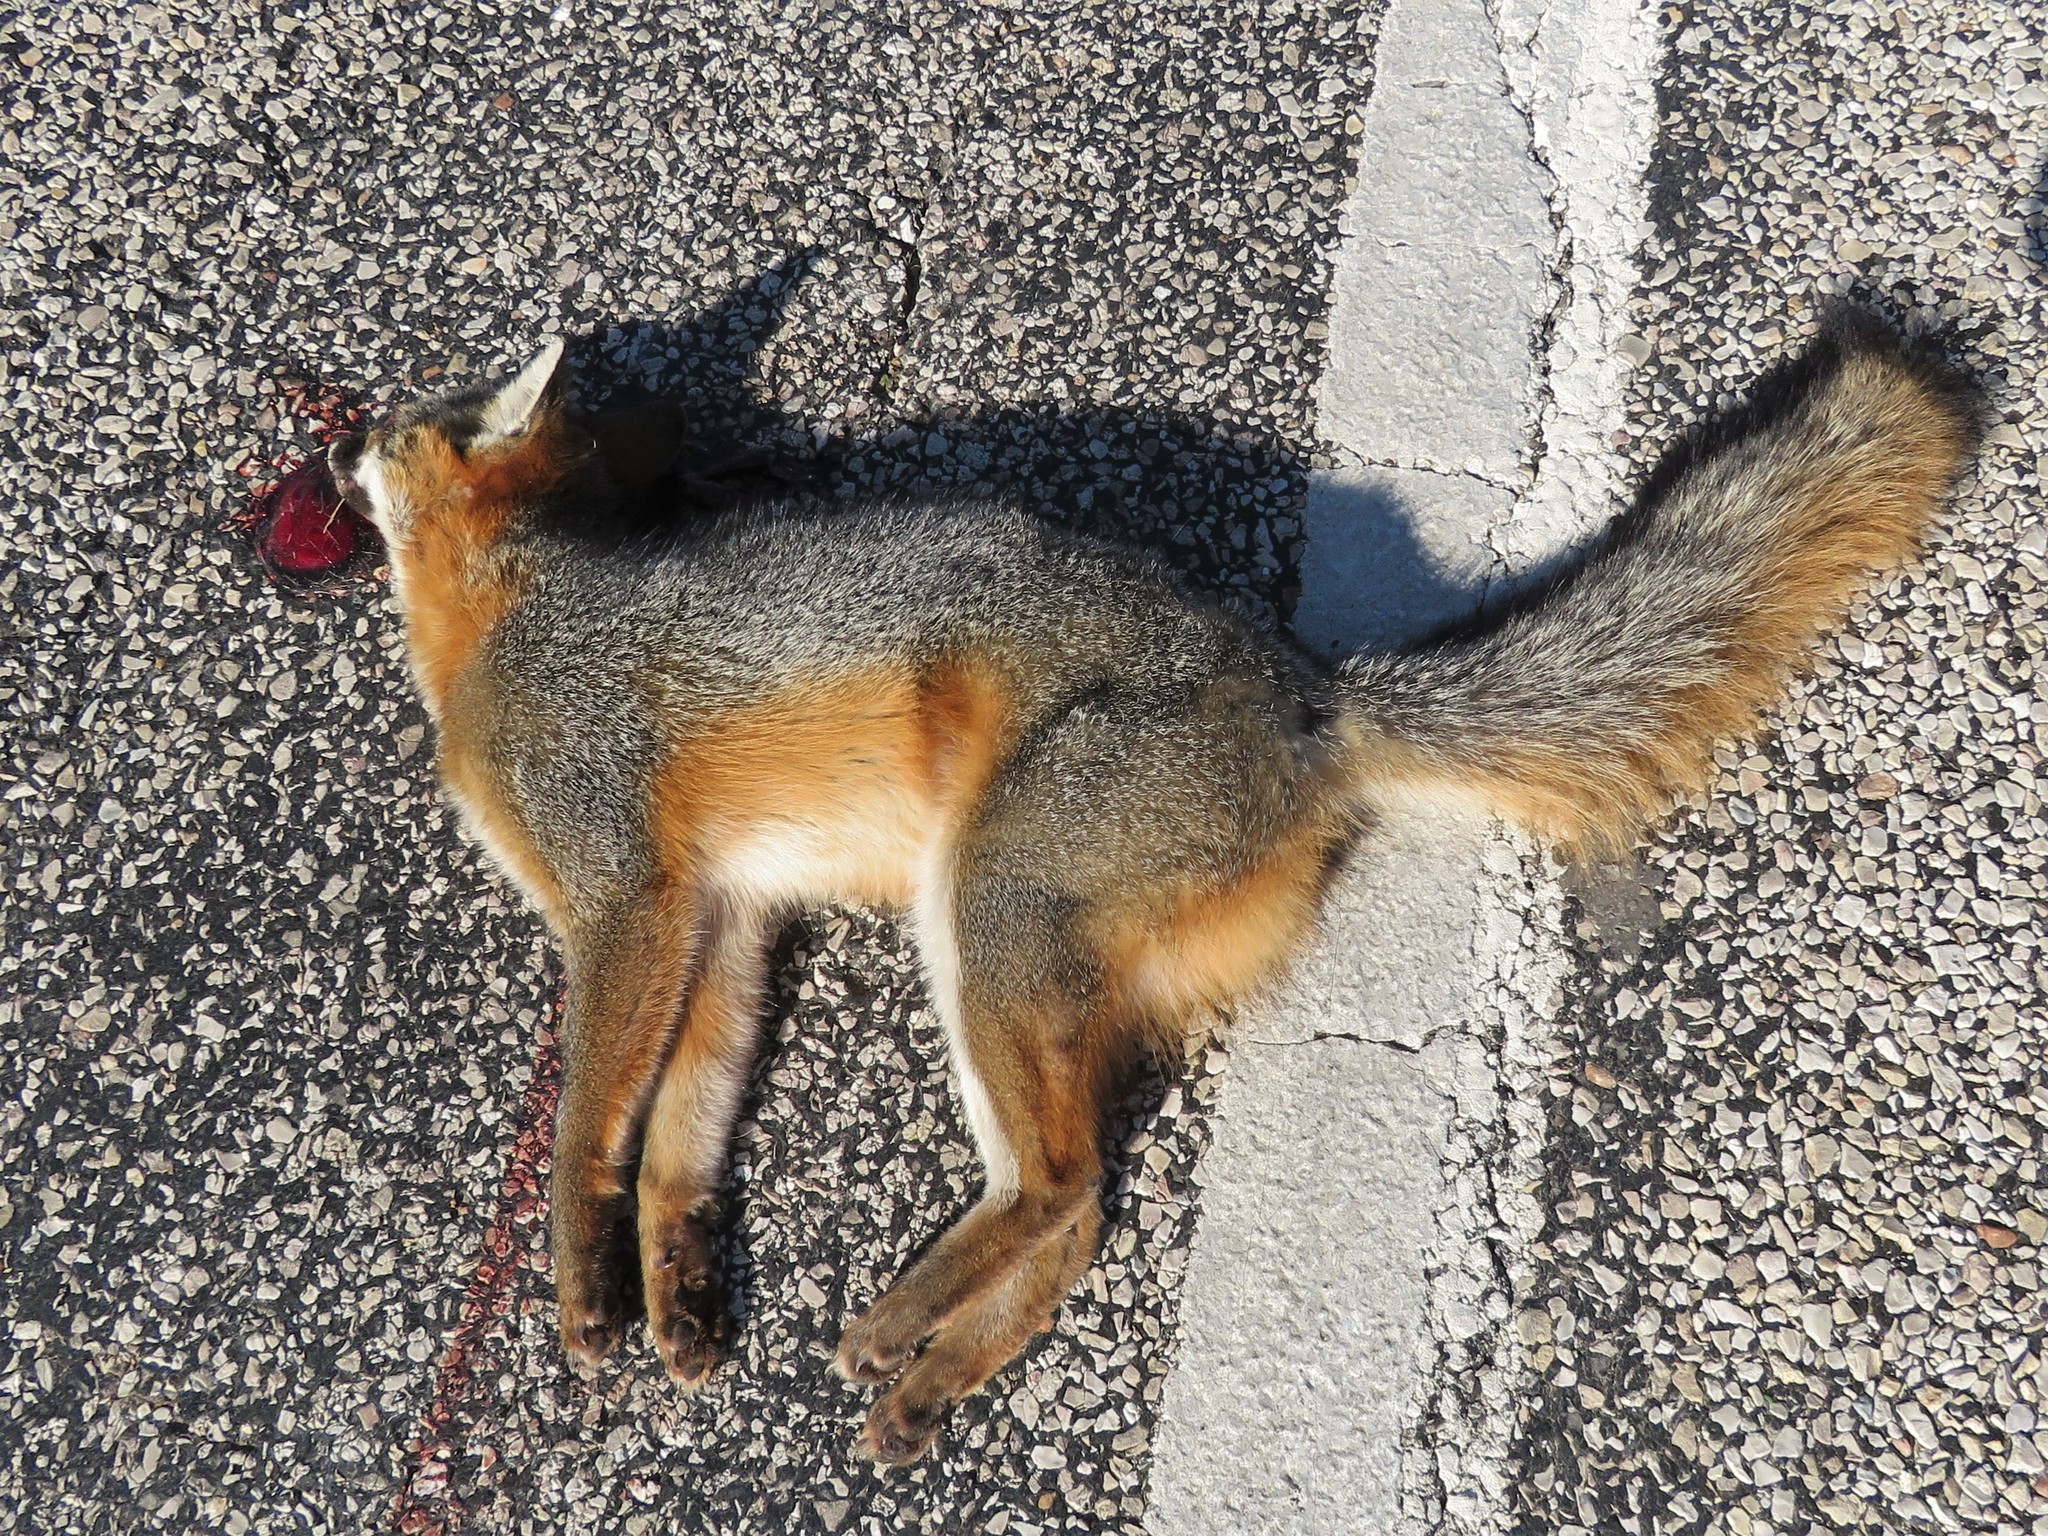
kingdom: Animalia
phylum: Chordata
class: Mammalia
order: Carnivora
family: Canidae
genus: Urocyon
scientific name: Urocyon cinereoargenteus
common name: Gray fox
